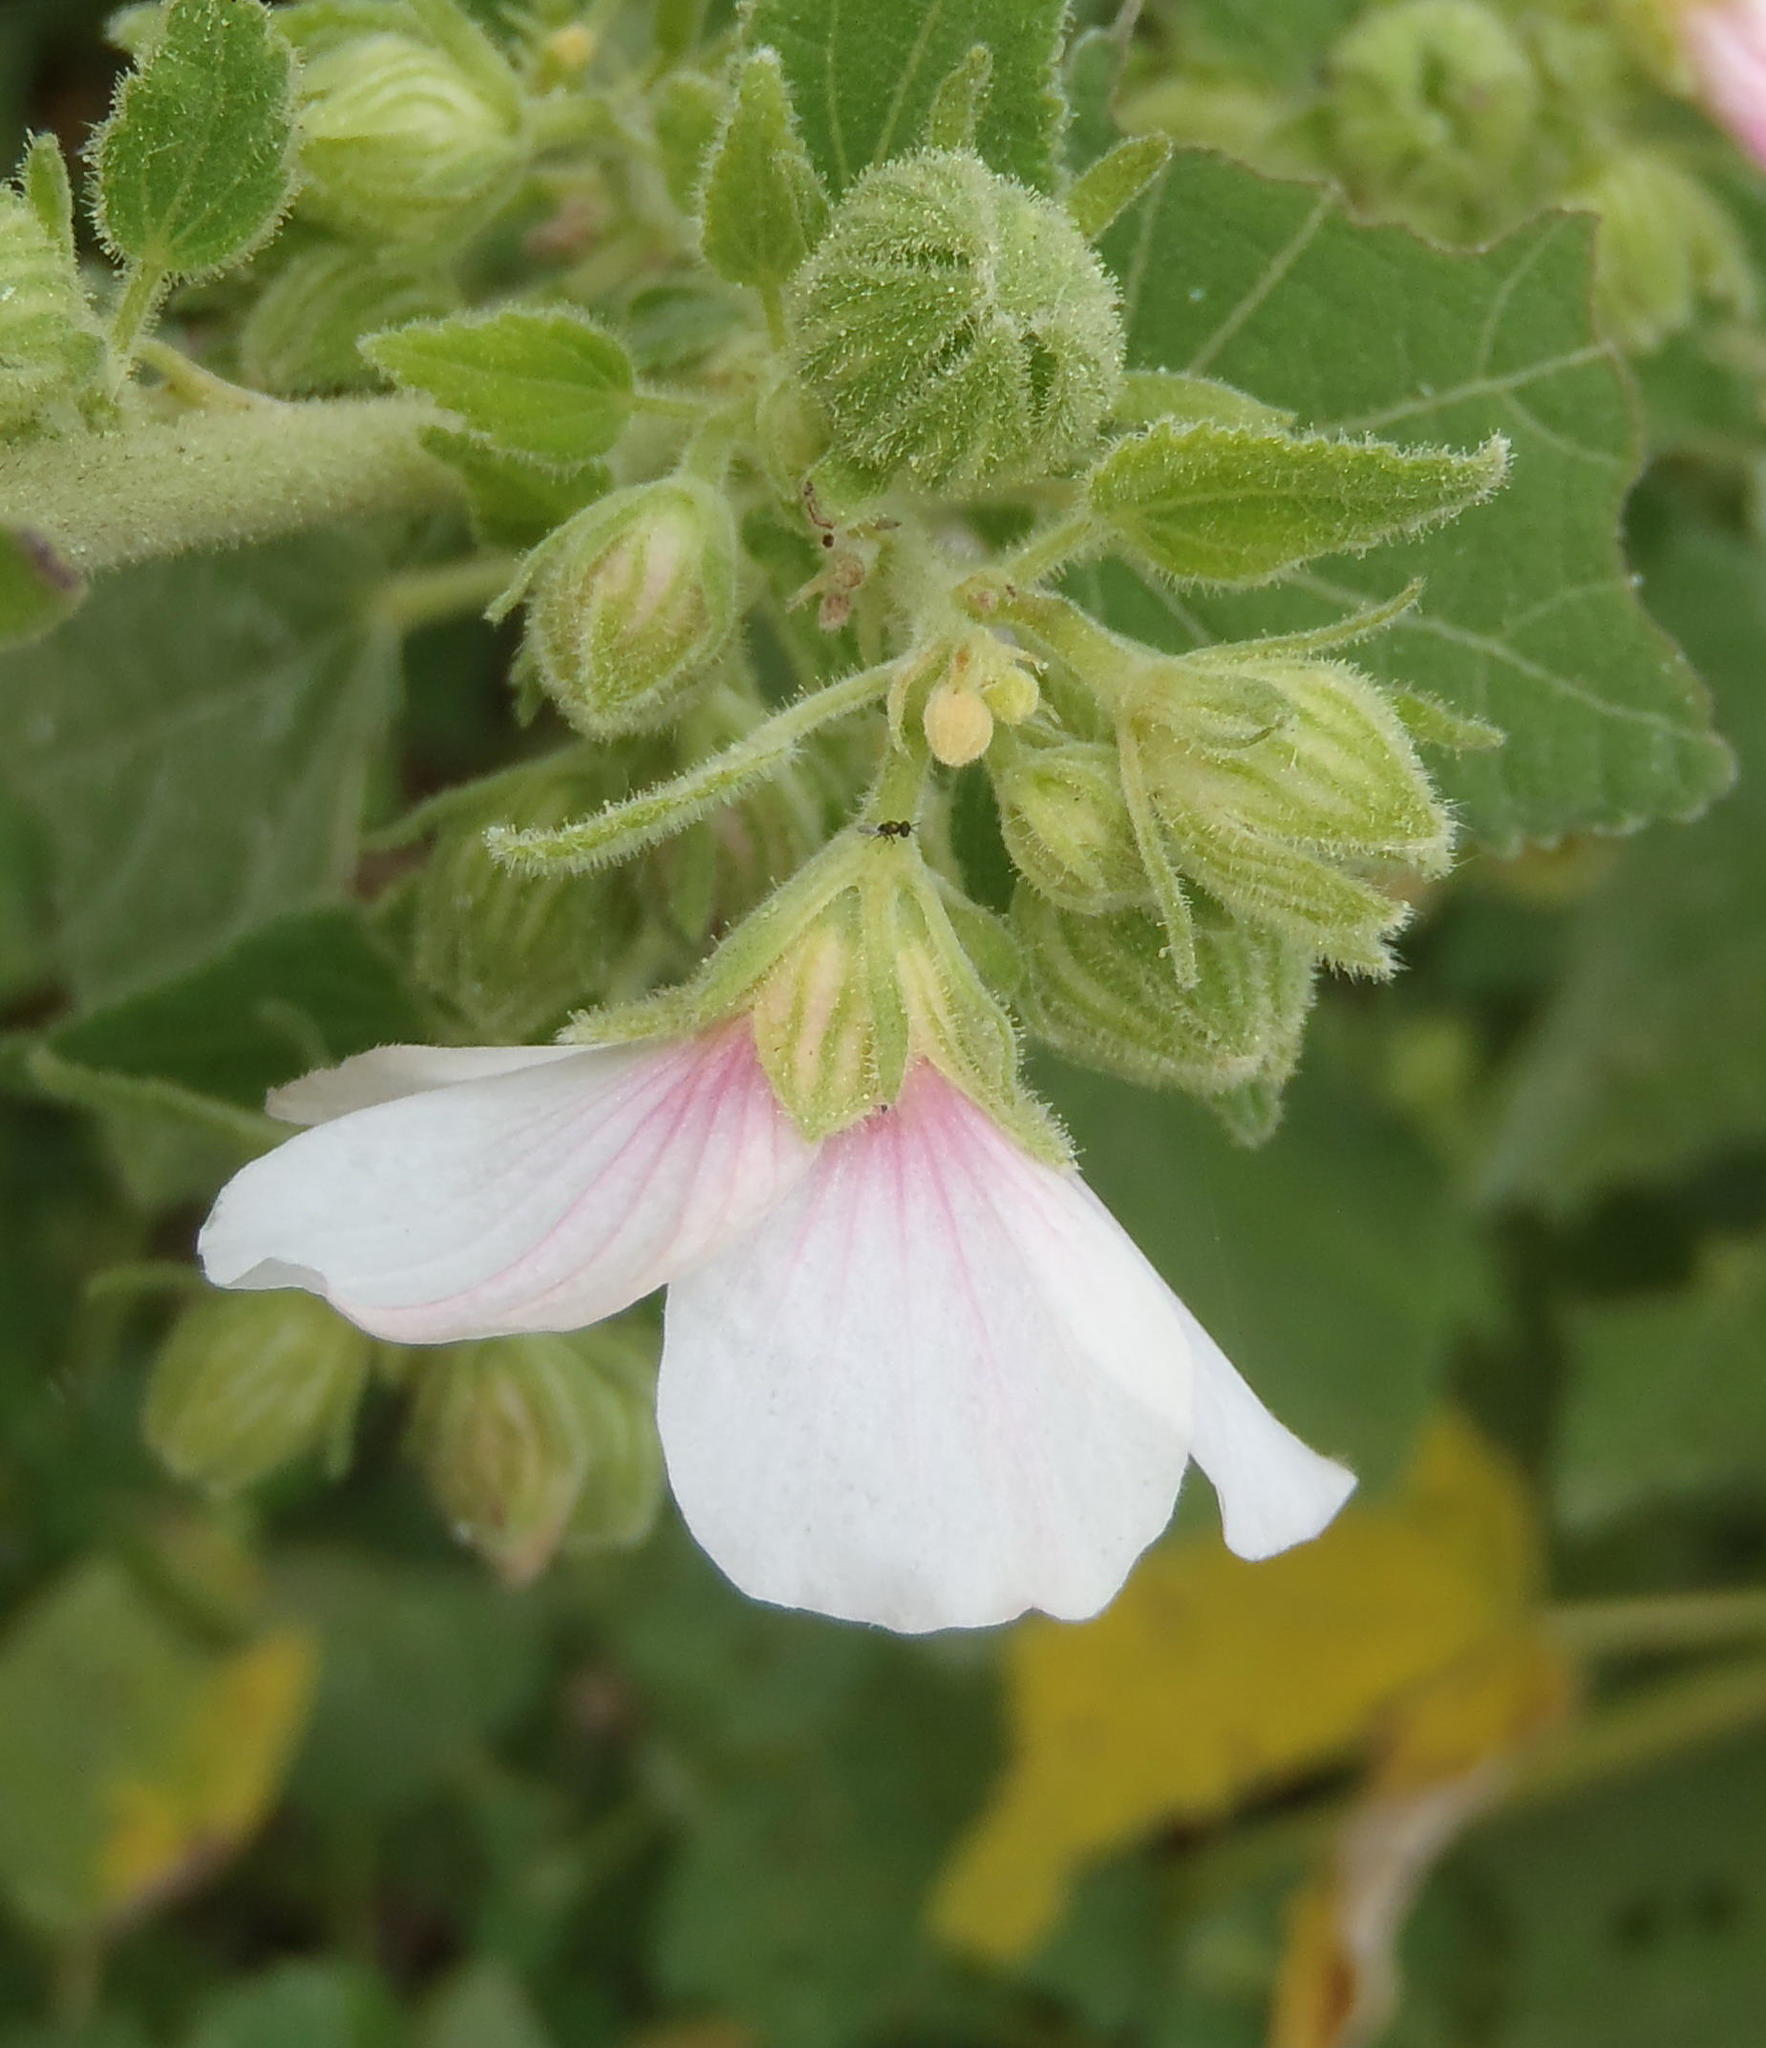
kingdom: Plantae
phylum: Tracheophyta
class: Magnoliopsida
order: Malvales
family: Malvaceae
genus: Pavonia
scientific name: Pavonia columella
